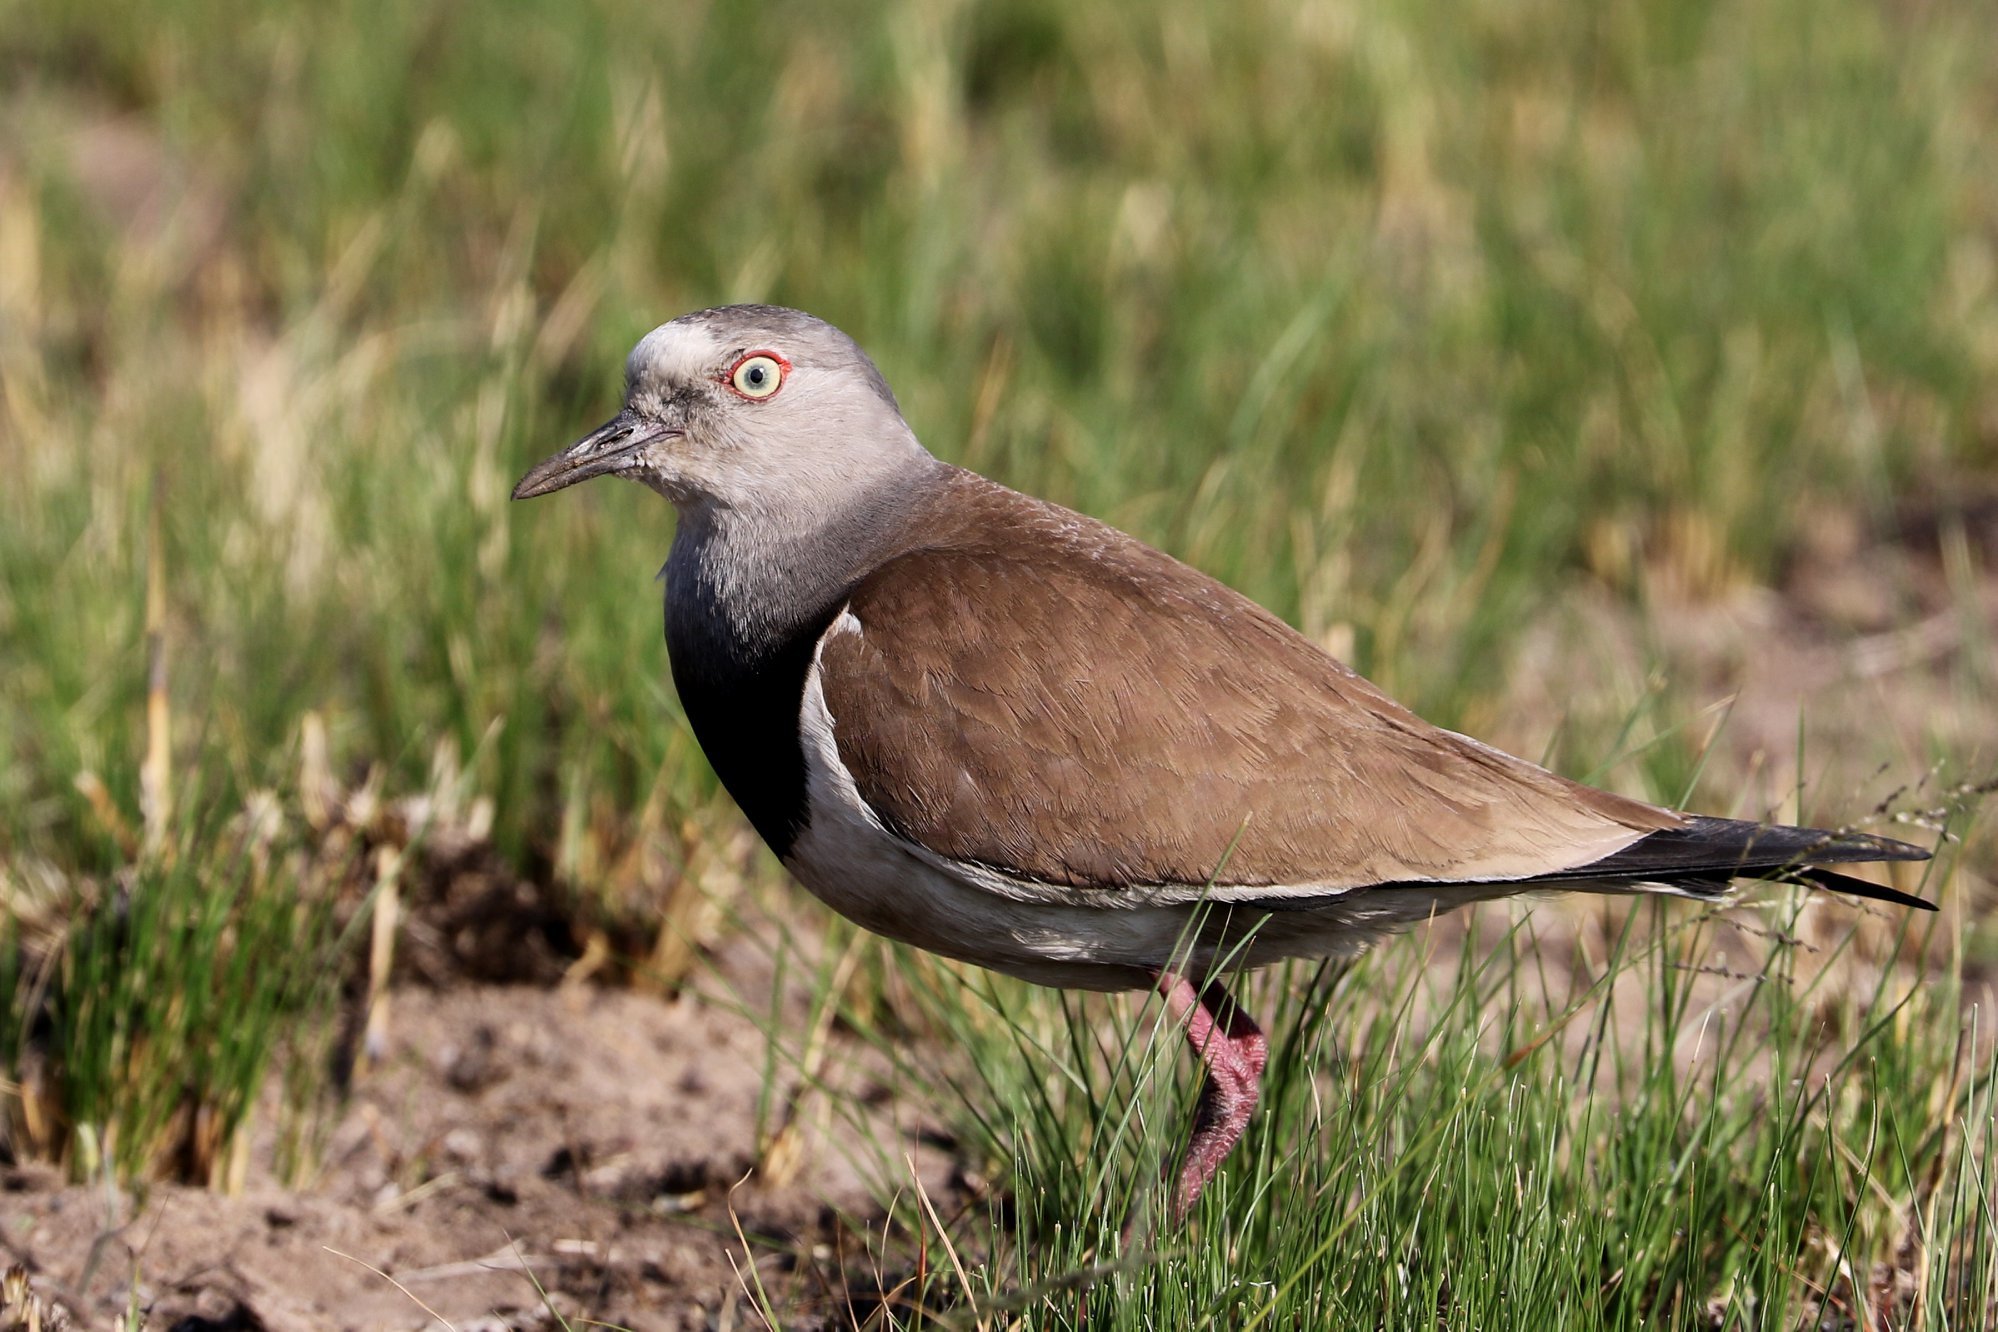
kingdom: Animalia
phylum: Chordata
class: Aves
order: Charadriiformes
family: Charadriidae
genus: Vanellus
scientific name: Vanellus melanopterus
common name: Black-winged lapwing
